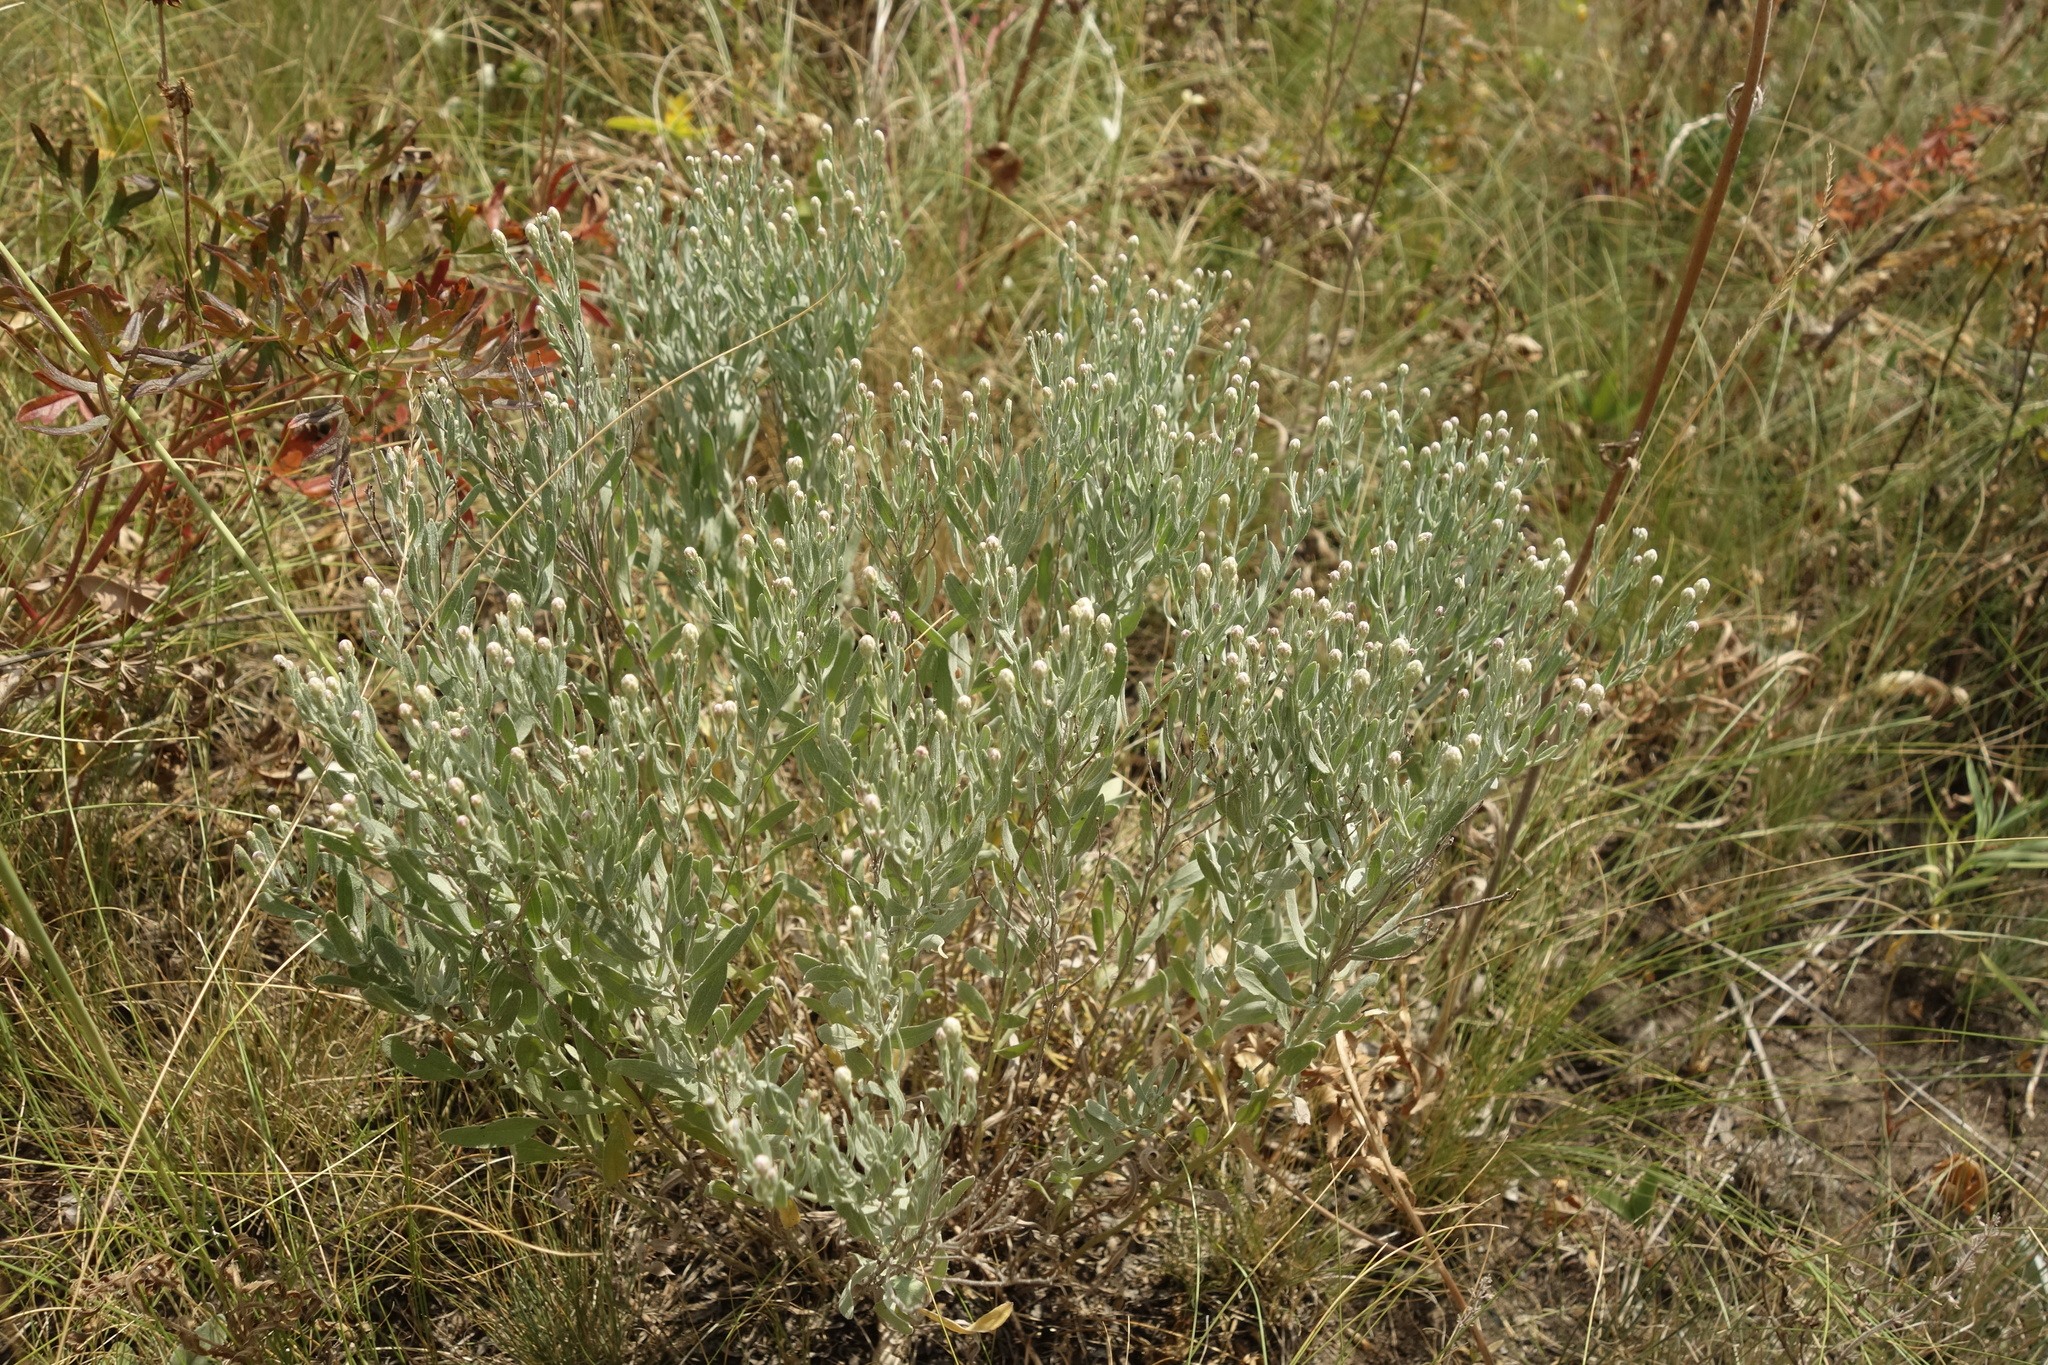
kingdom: Plantae
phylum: Tracheophyta
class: Magnoliopsida
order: Asterales
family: Asteraceae
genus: Galatella
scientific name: Galatella villosa
